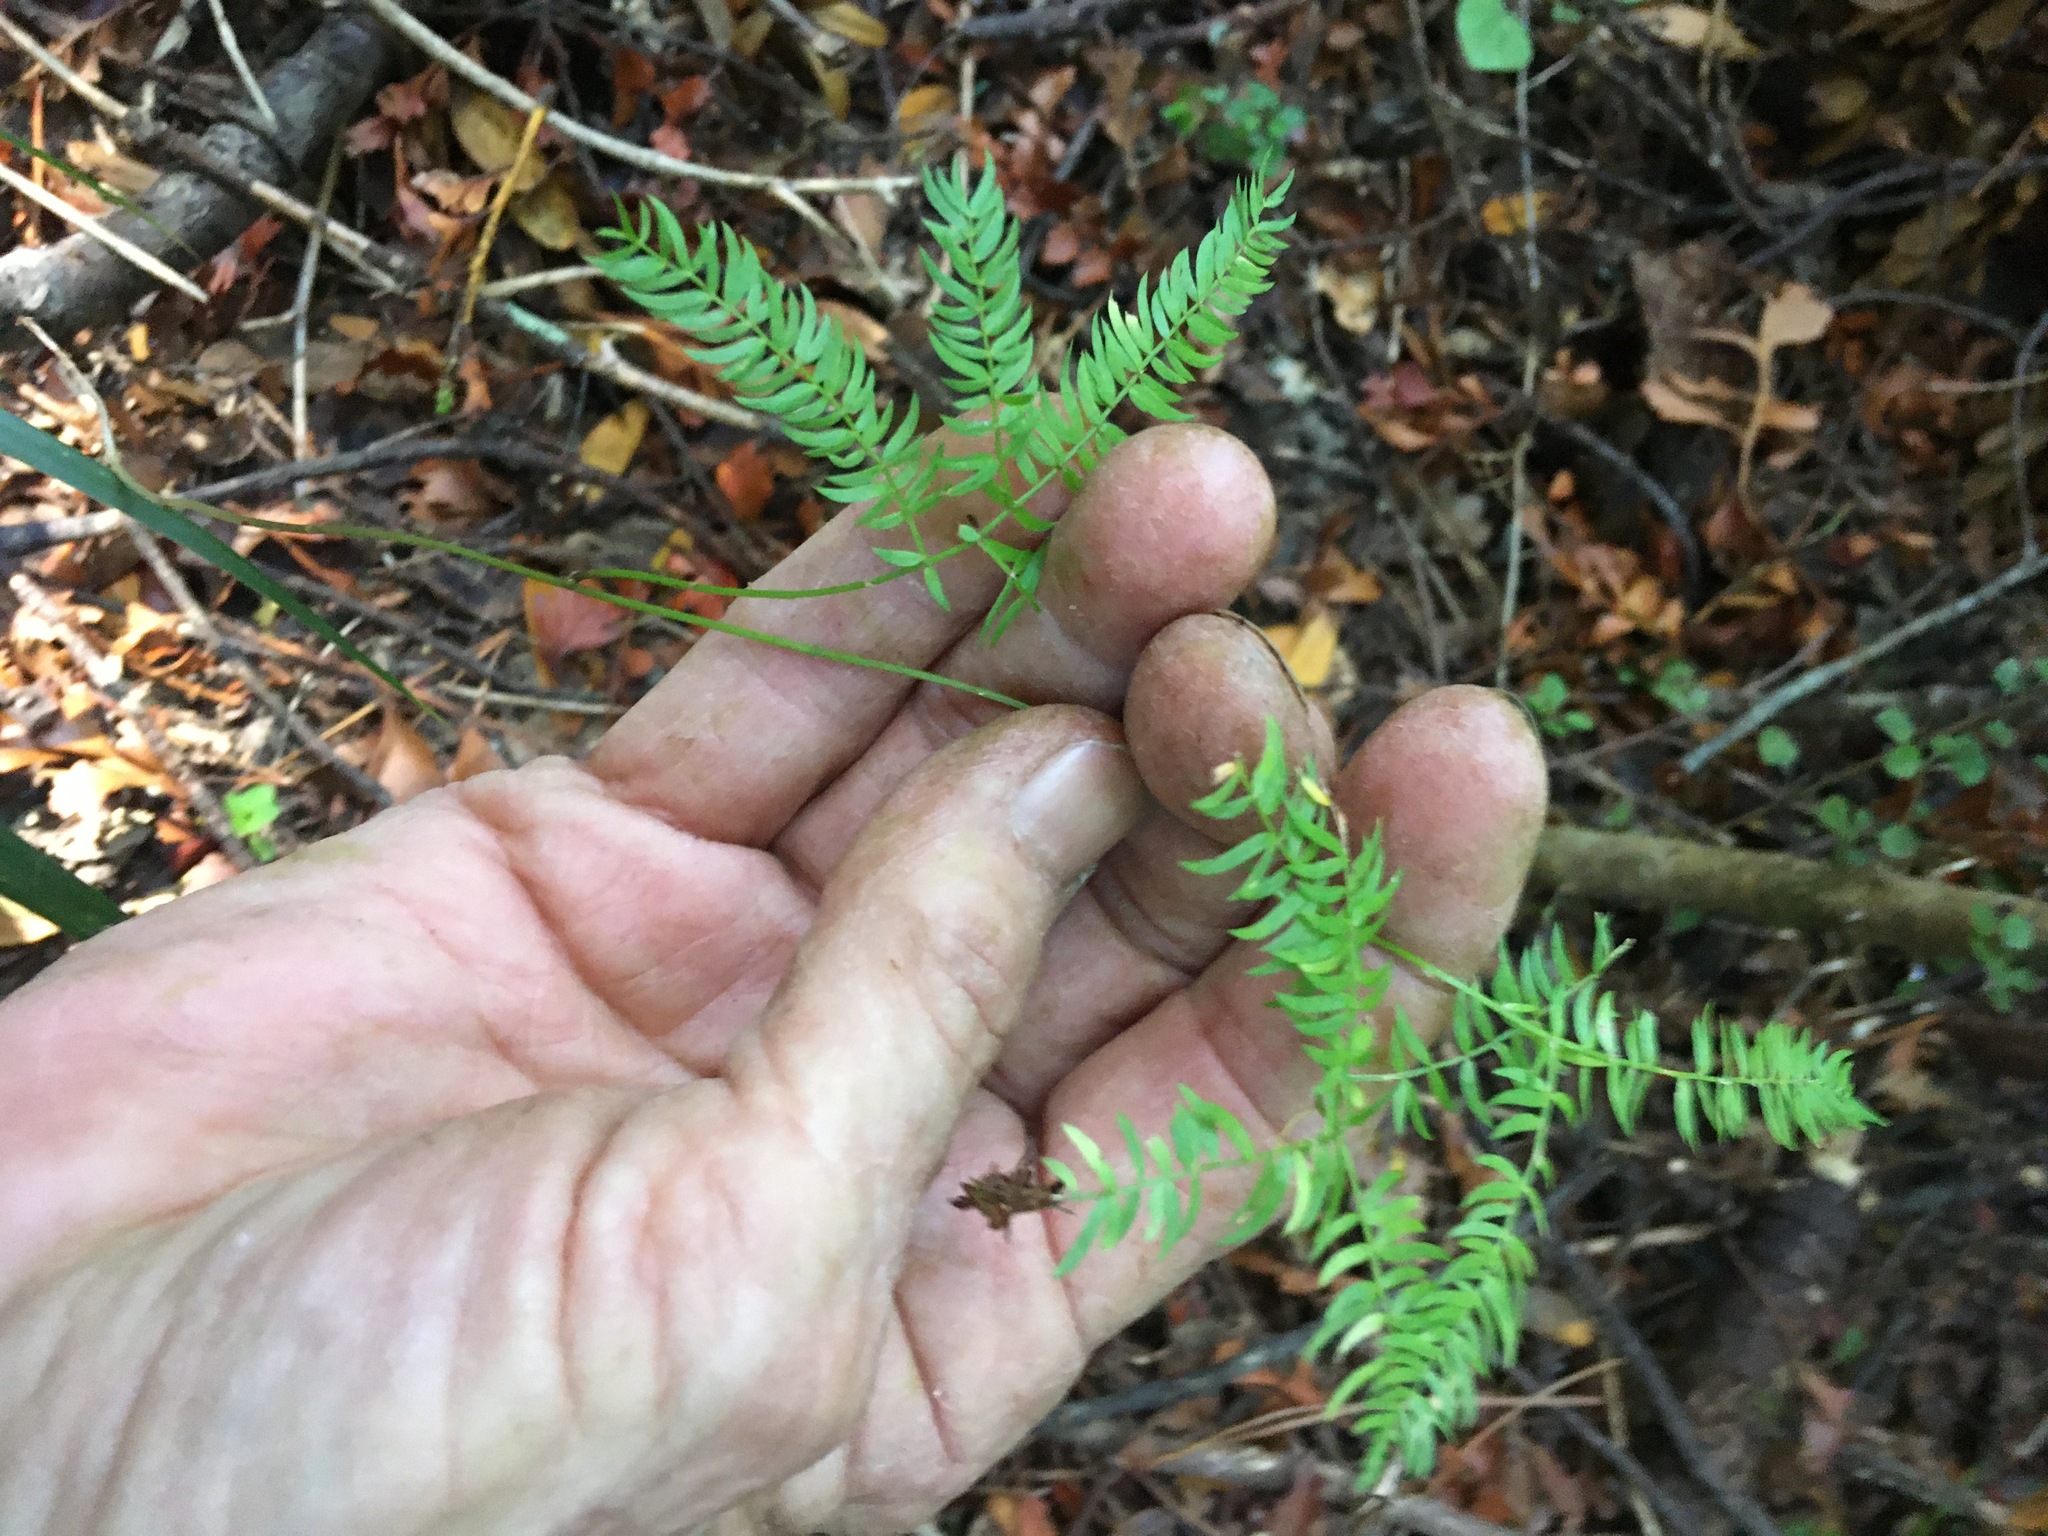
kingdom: Plantae
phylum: Tracheophyta
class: Liliopsida
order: Asparagales
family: Asparagaceae
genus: Asparagus
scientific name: Asparagus scandens
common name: Asparagus-fern
